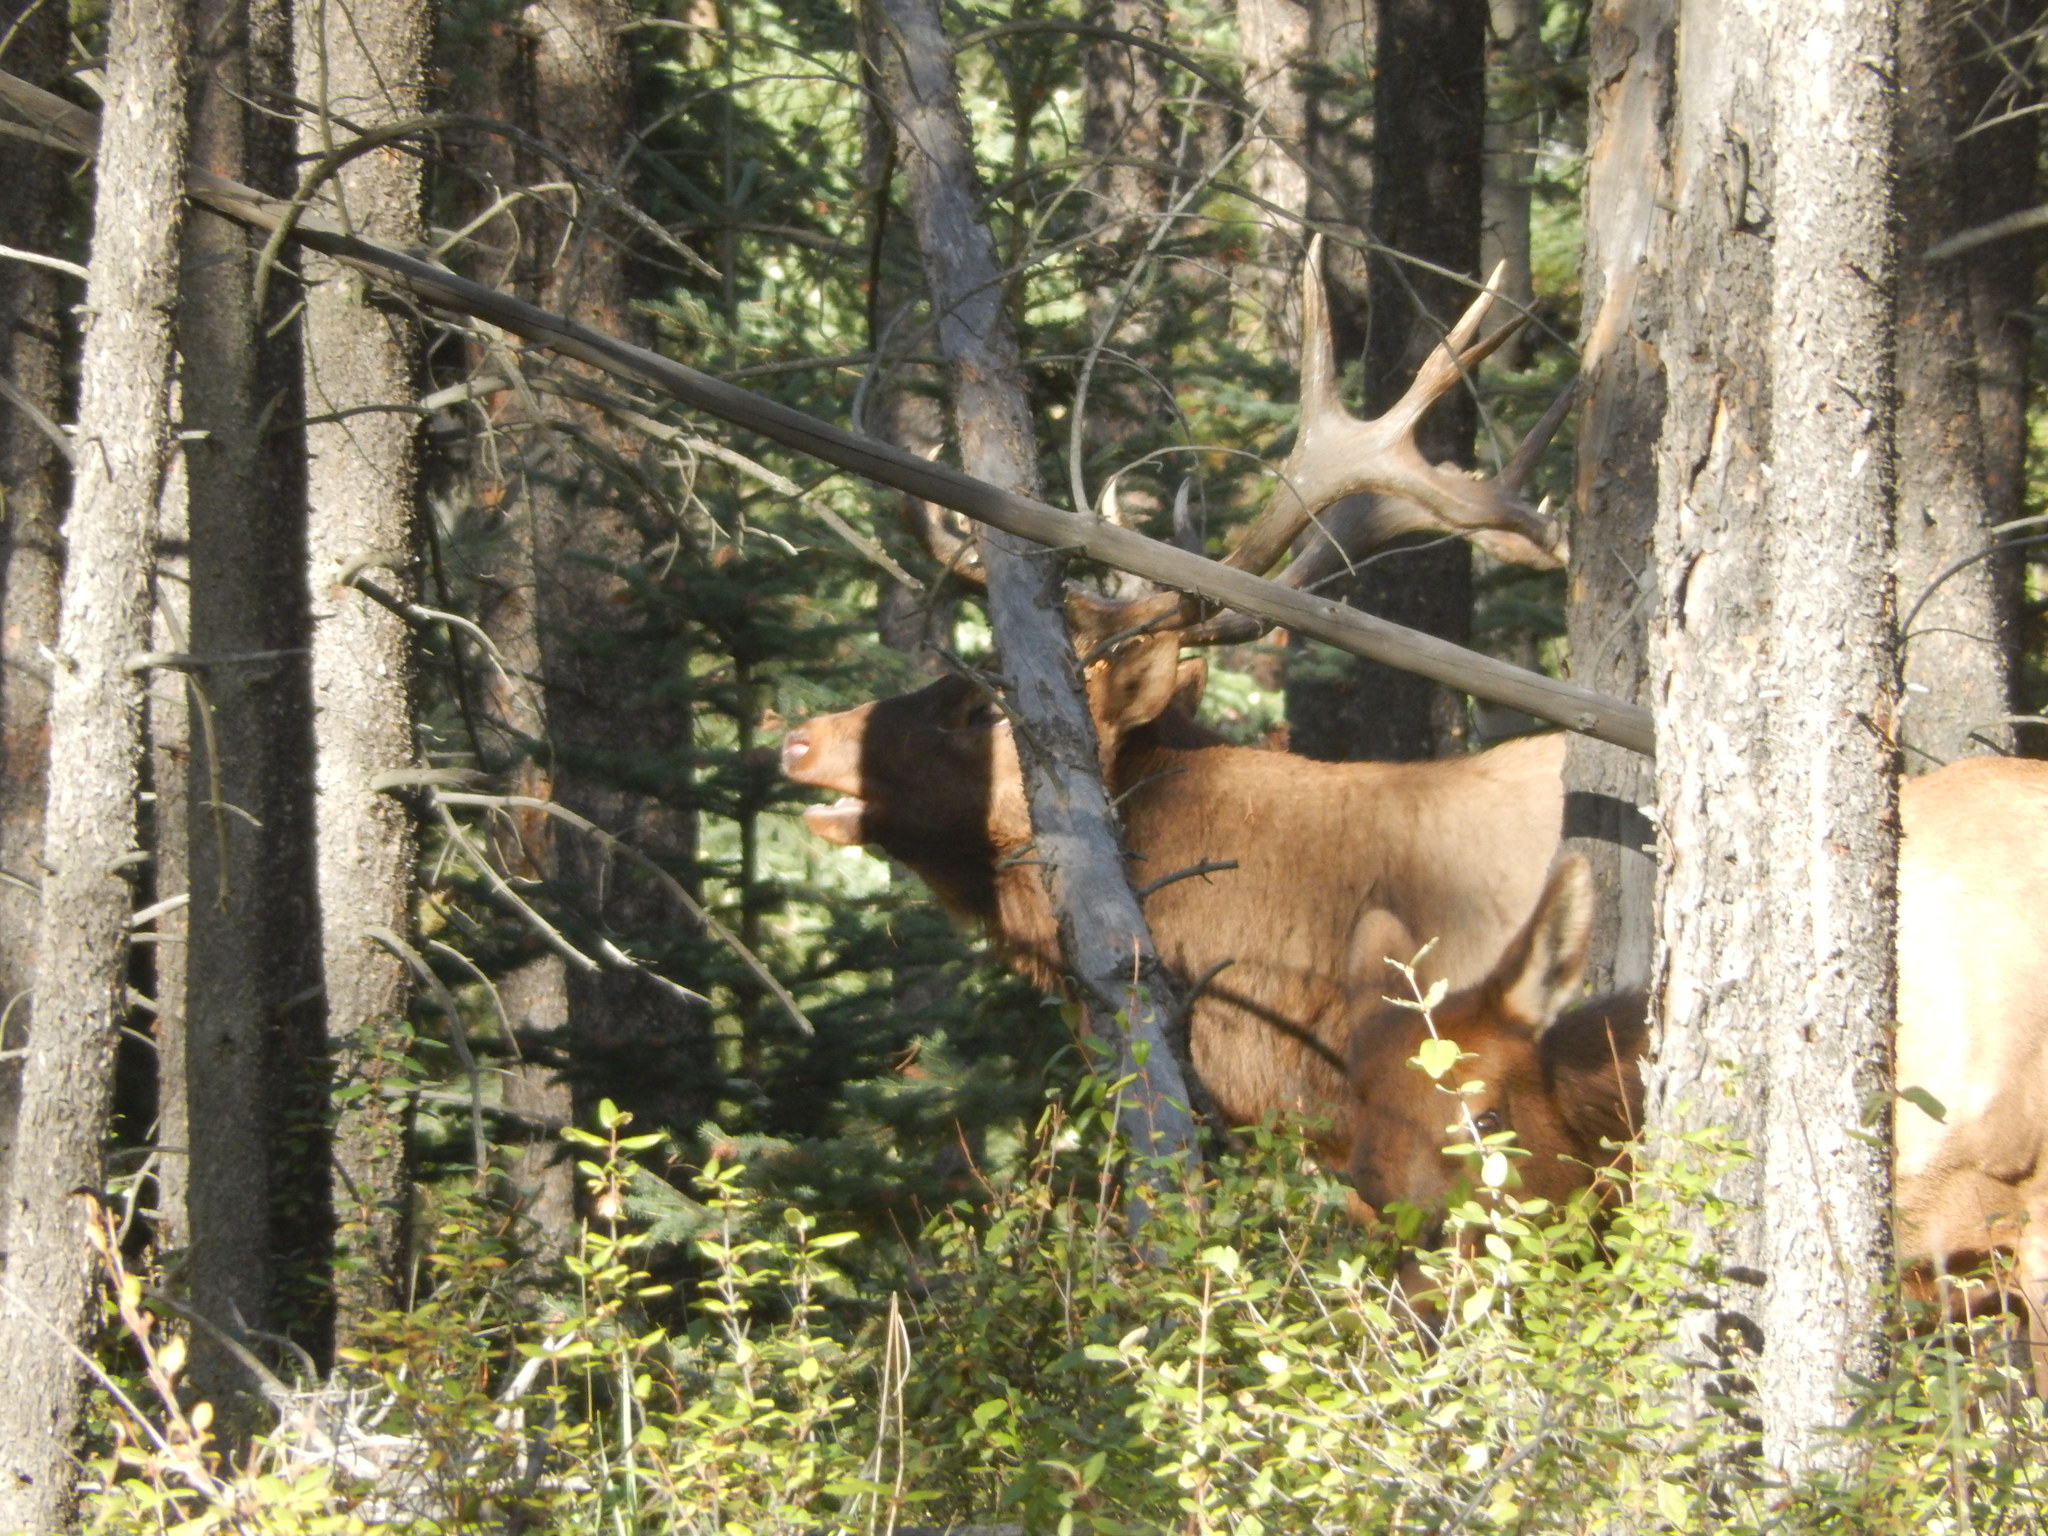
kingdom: Animalia
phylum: Chordata
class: Mammalia
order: Artiodactyla
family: Cervidae
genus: Cervus
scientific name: Cervus elaphus
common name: Red deer
